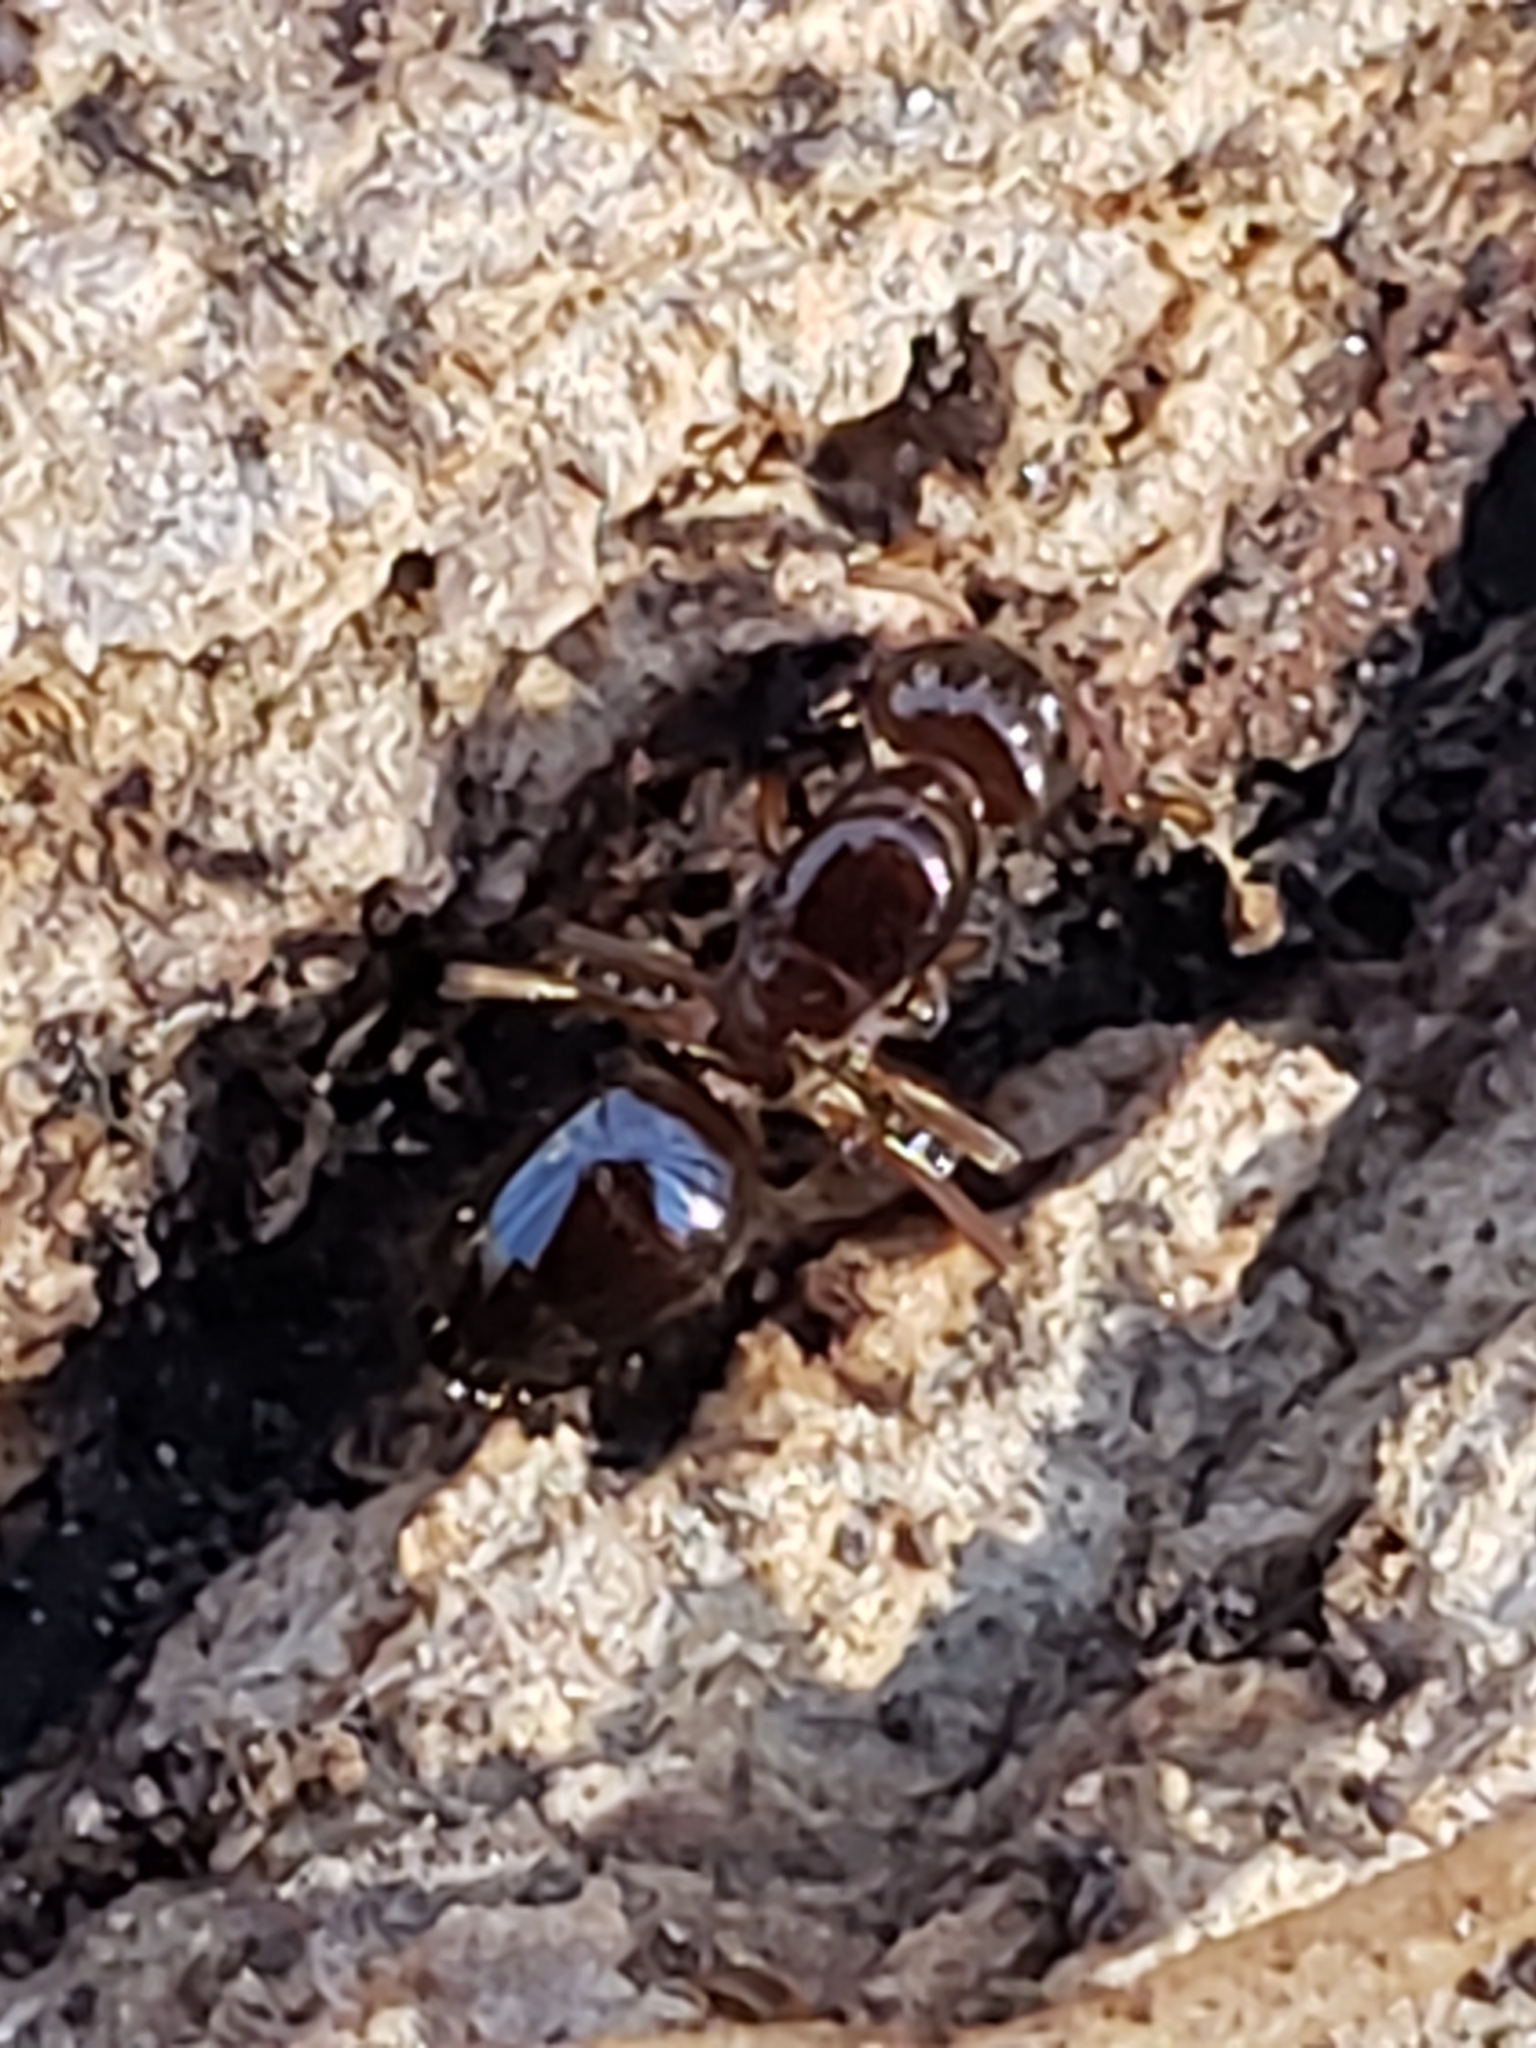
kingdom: Animalia
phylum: Arthropoda
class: Insecta
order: Hymenoptera
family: Formicidae
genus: Lasius
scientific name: Lasius claviger
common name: Common citronella ant
